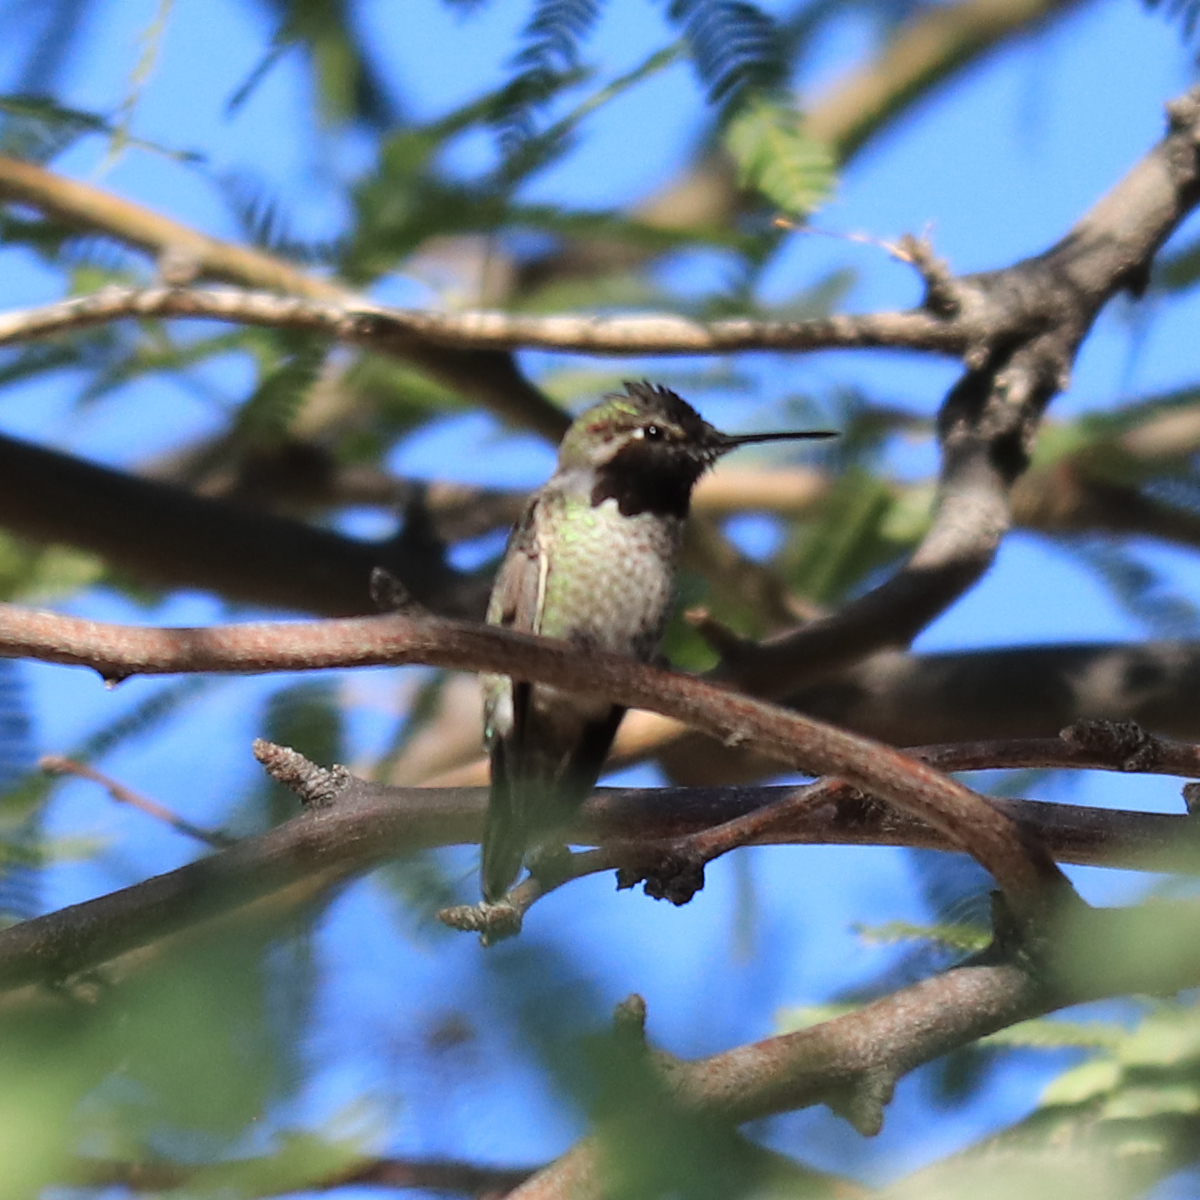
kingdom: Animalia
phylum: Chordata
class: Aves
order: Apodiformes
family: Trochilidae
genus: Calypte
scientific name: Calypte anna
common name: Anna's hummingbird
